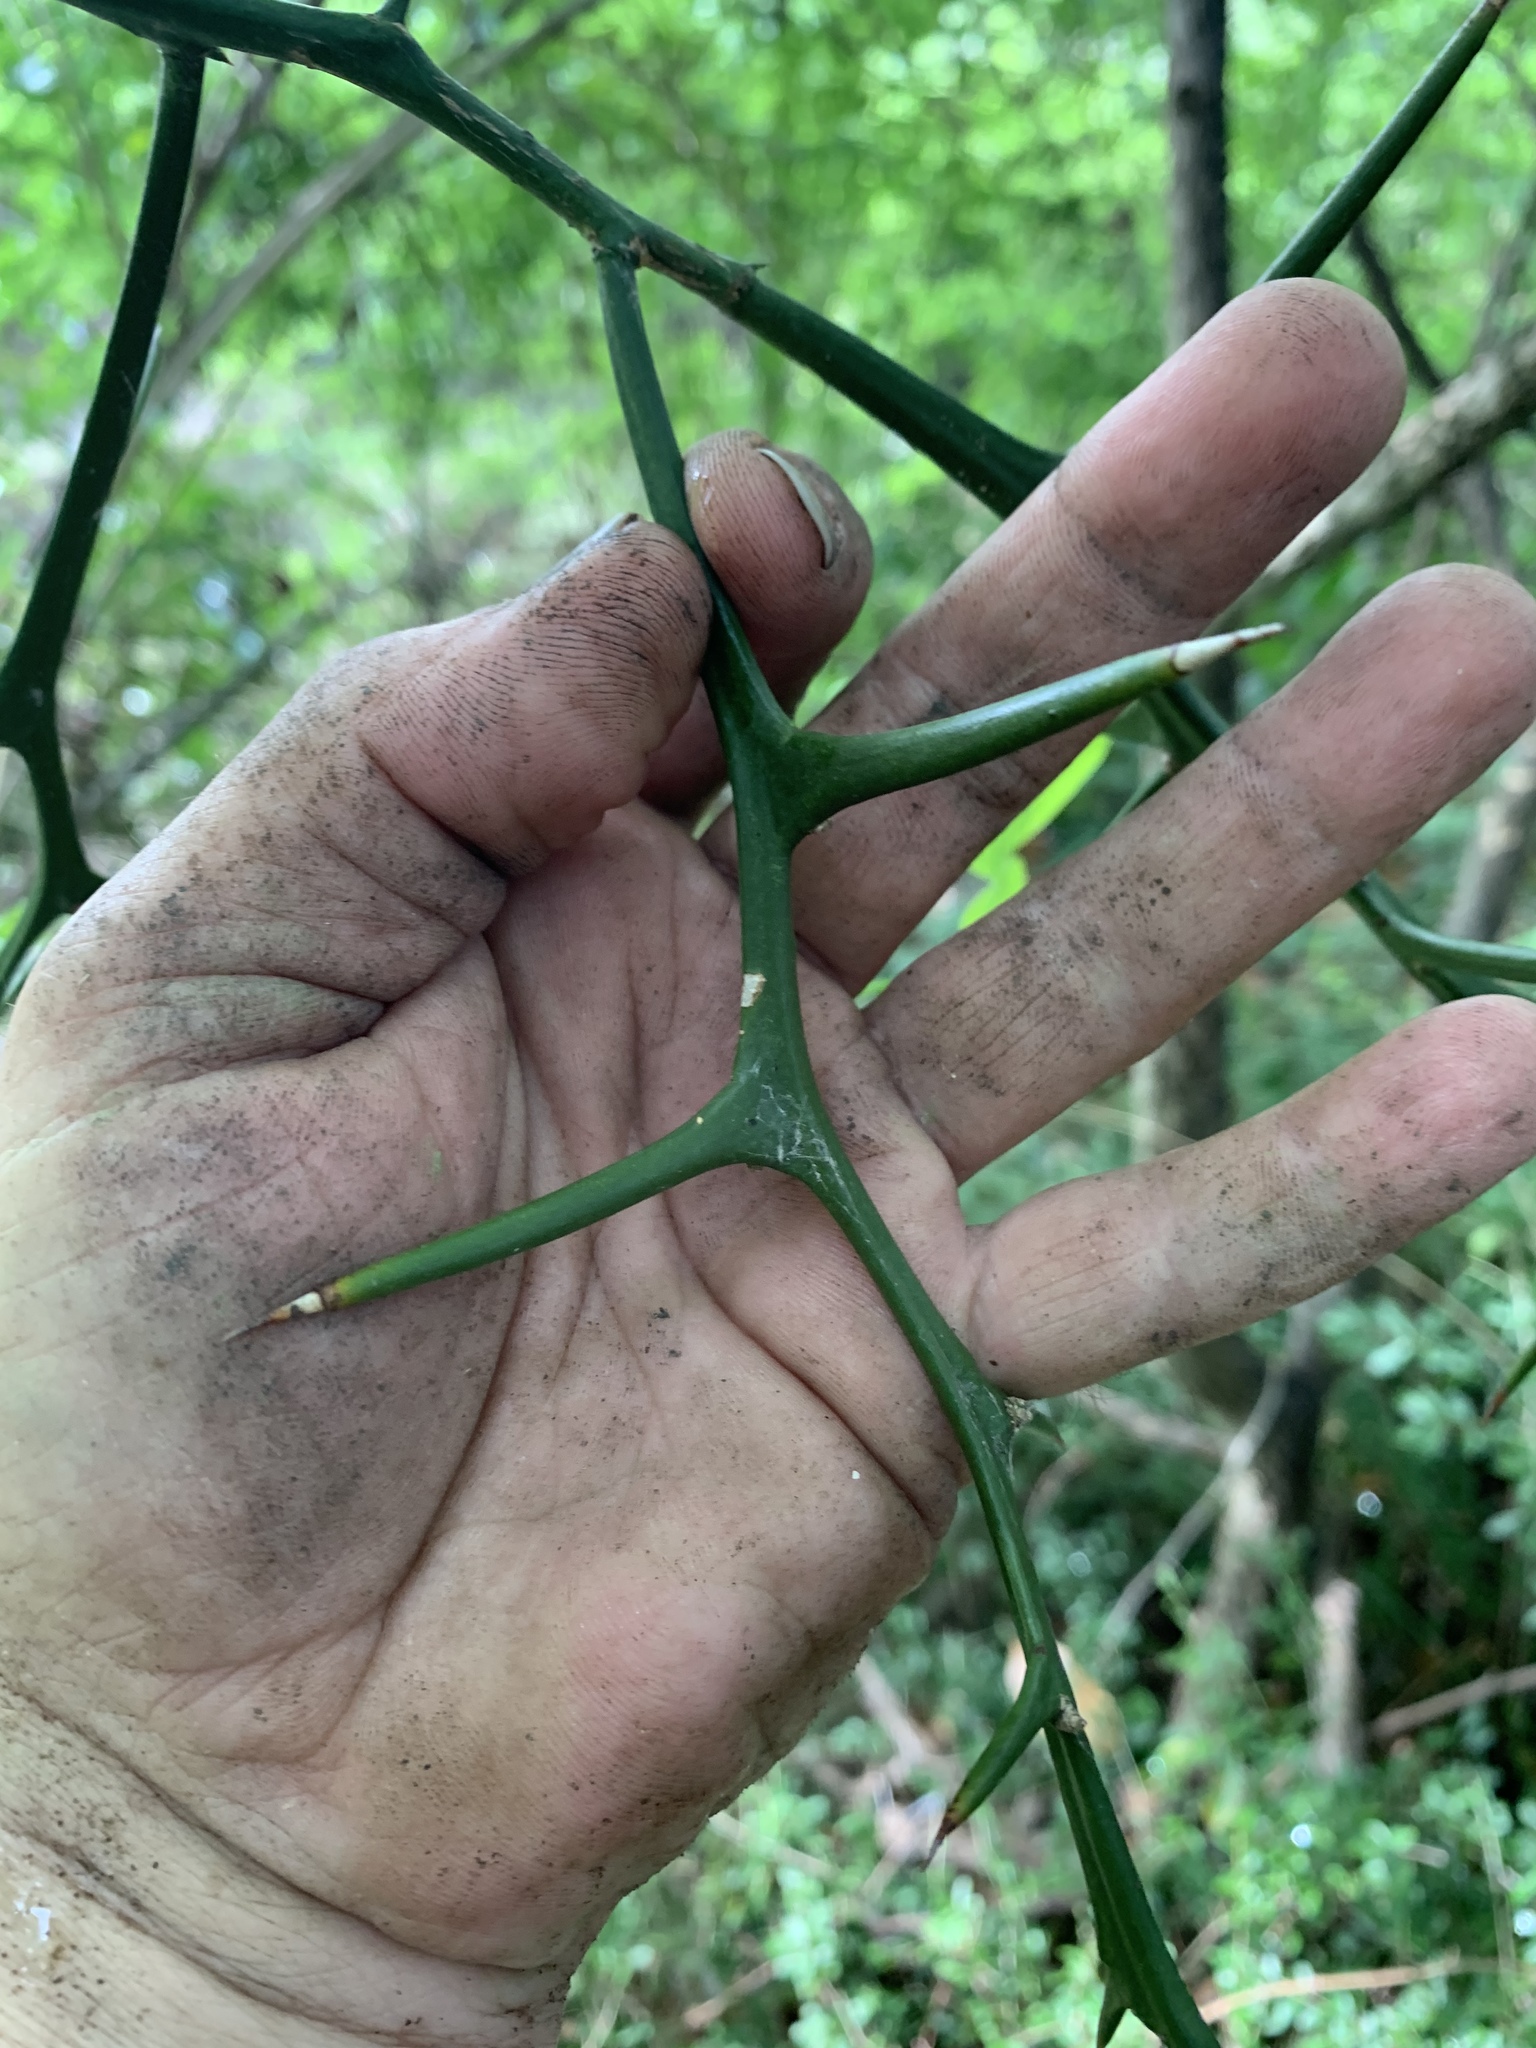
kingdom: Plantae
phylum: Tracheophyta
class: Magnoliopsida
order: Sapindales
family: Rutaceae
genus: Citrus
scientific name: Citrus trifoliata
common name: Japanese bitter-orange
